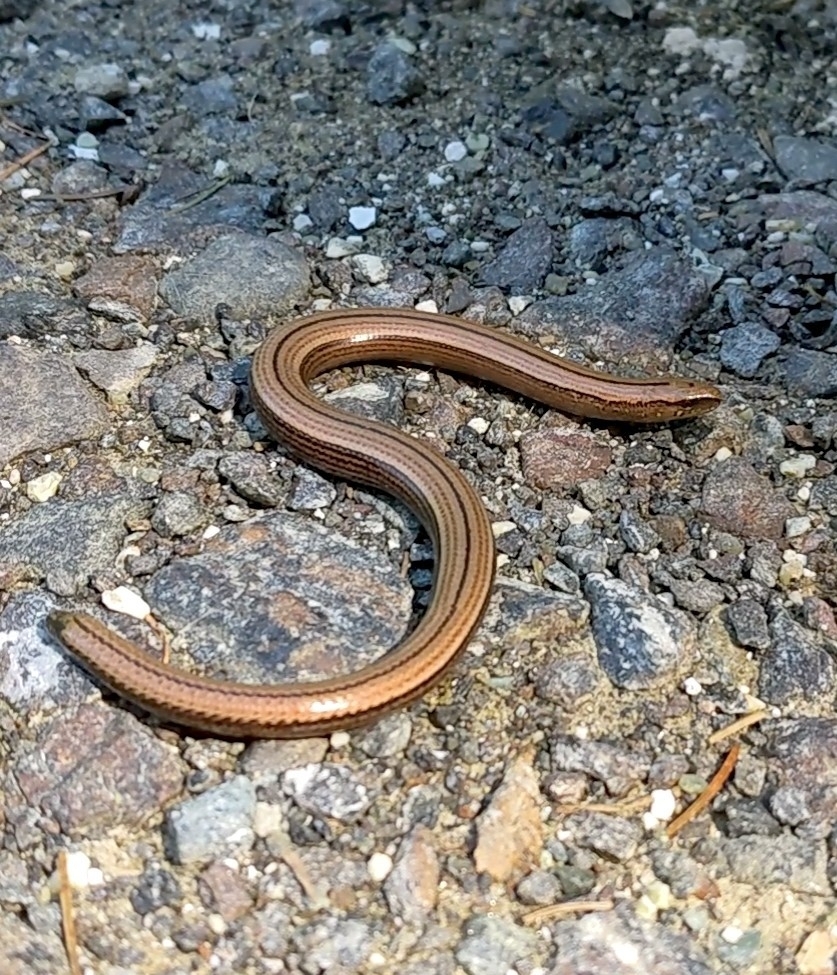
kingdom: Animalia
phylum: Chordata
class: Squamata
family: Anguidae
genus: Anguis
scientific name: Anguis fragilis
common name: Slow worm
